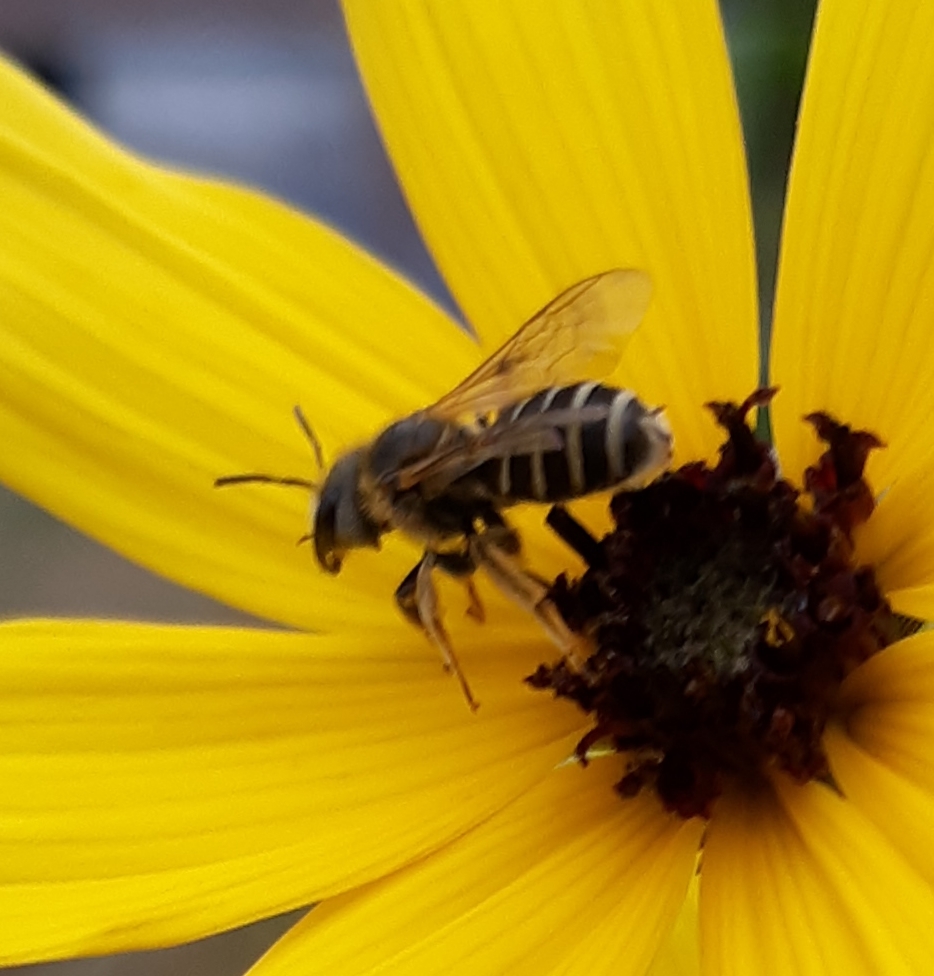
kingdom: Animalia
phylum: Arthropoda
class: Insecta
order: Hymenoptera
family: Halictidae
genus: Halictus
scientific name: Halictus ligatus
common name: Ligated furrow bee
